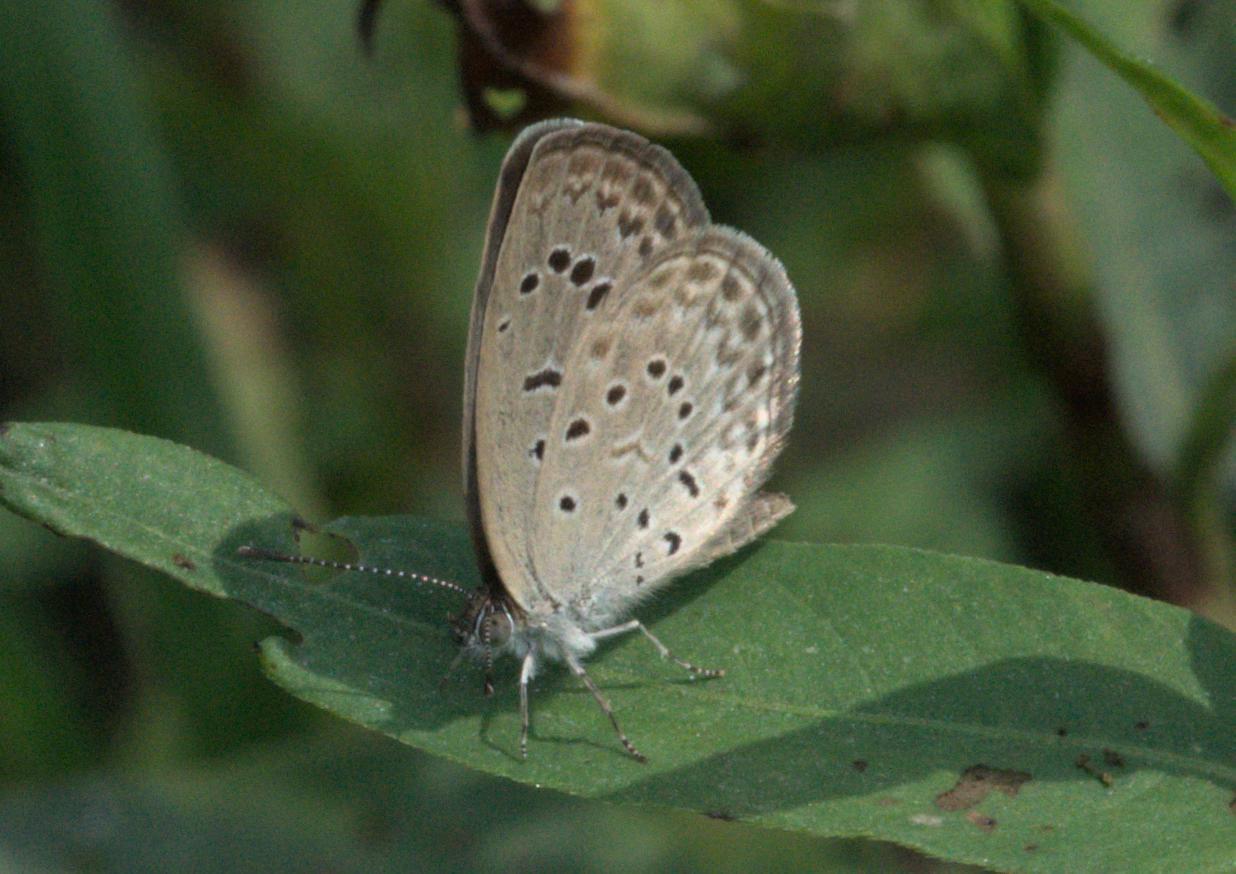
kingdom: Animalia
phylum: Arthropoda
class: Insecta
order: Lepidoptera
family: Lycaenidae
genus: Pseudozizeeria
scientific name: Pseudozizeeria maha
